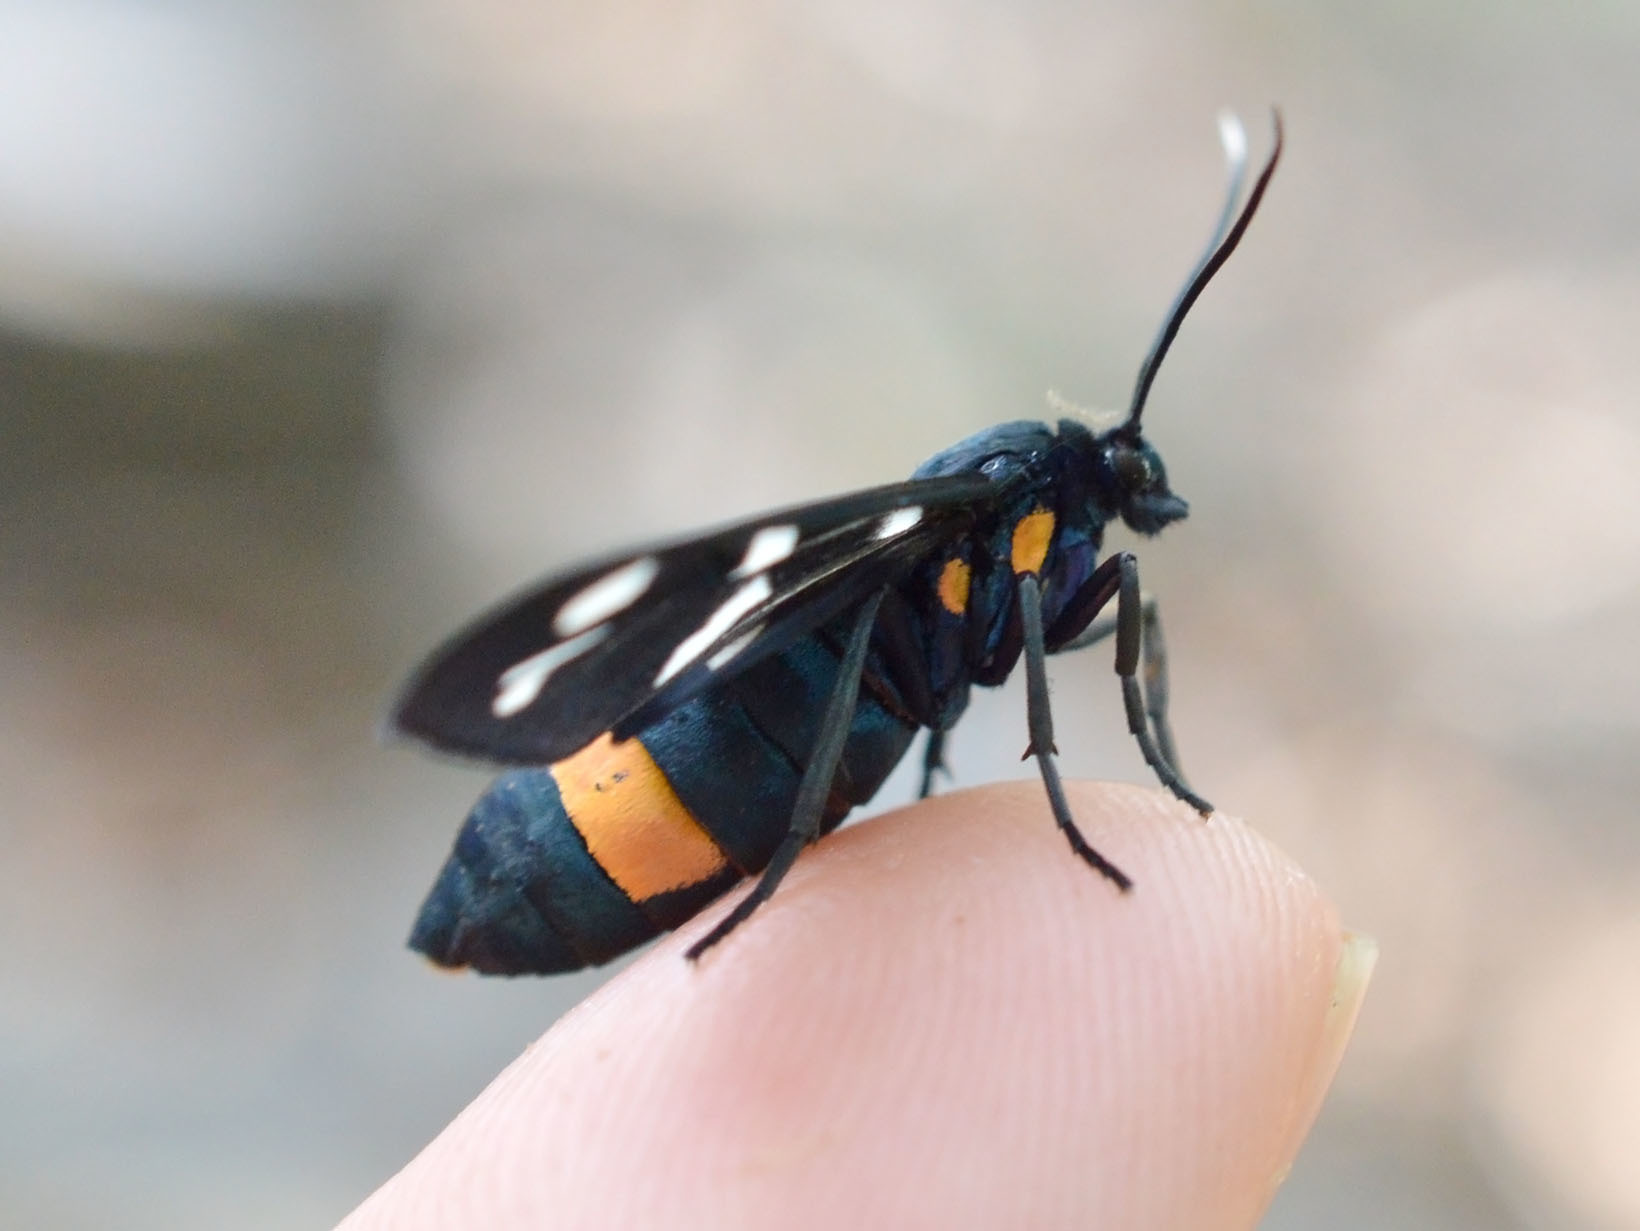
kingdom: Animalia
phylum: Arthropoda
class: Insecta
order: Lepidoptera
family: Erebidae
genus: Amata
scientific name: Amata phegea
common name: Nine-spotted
